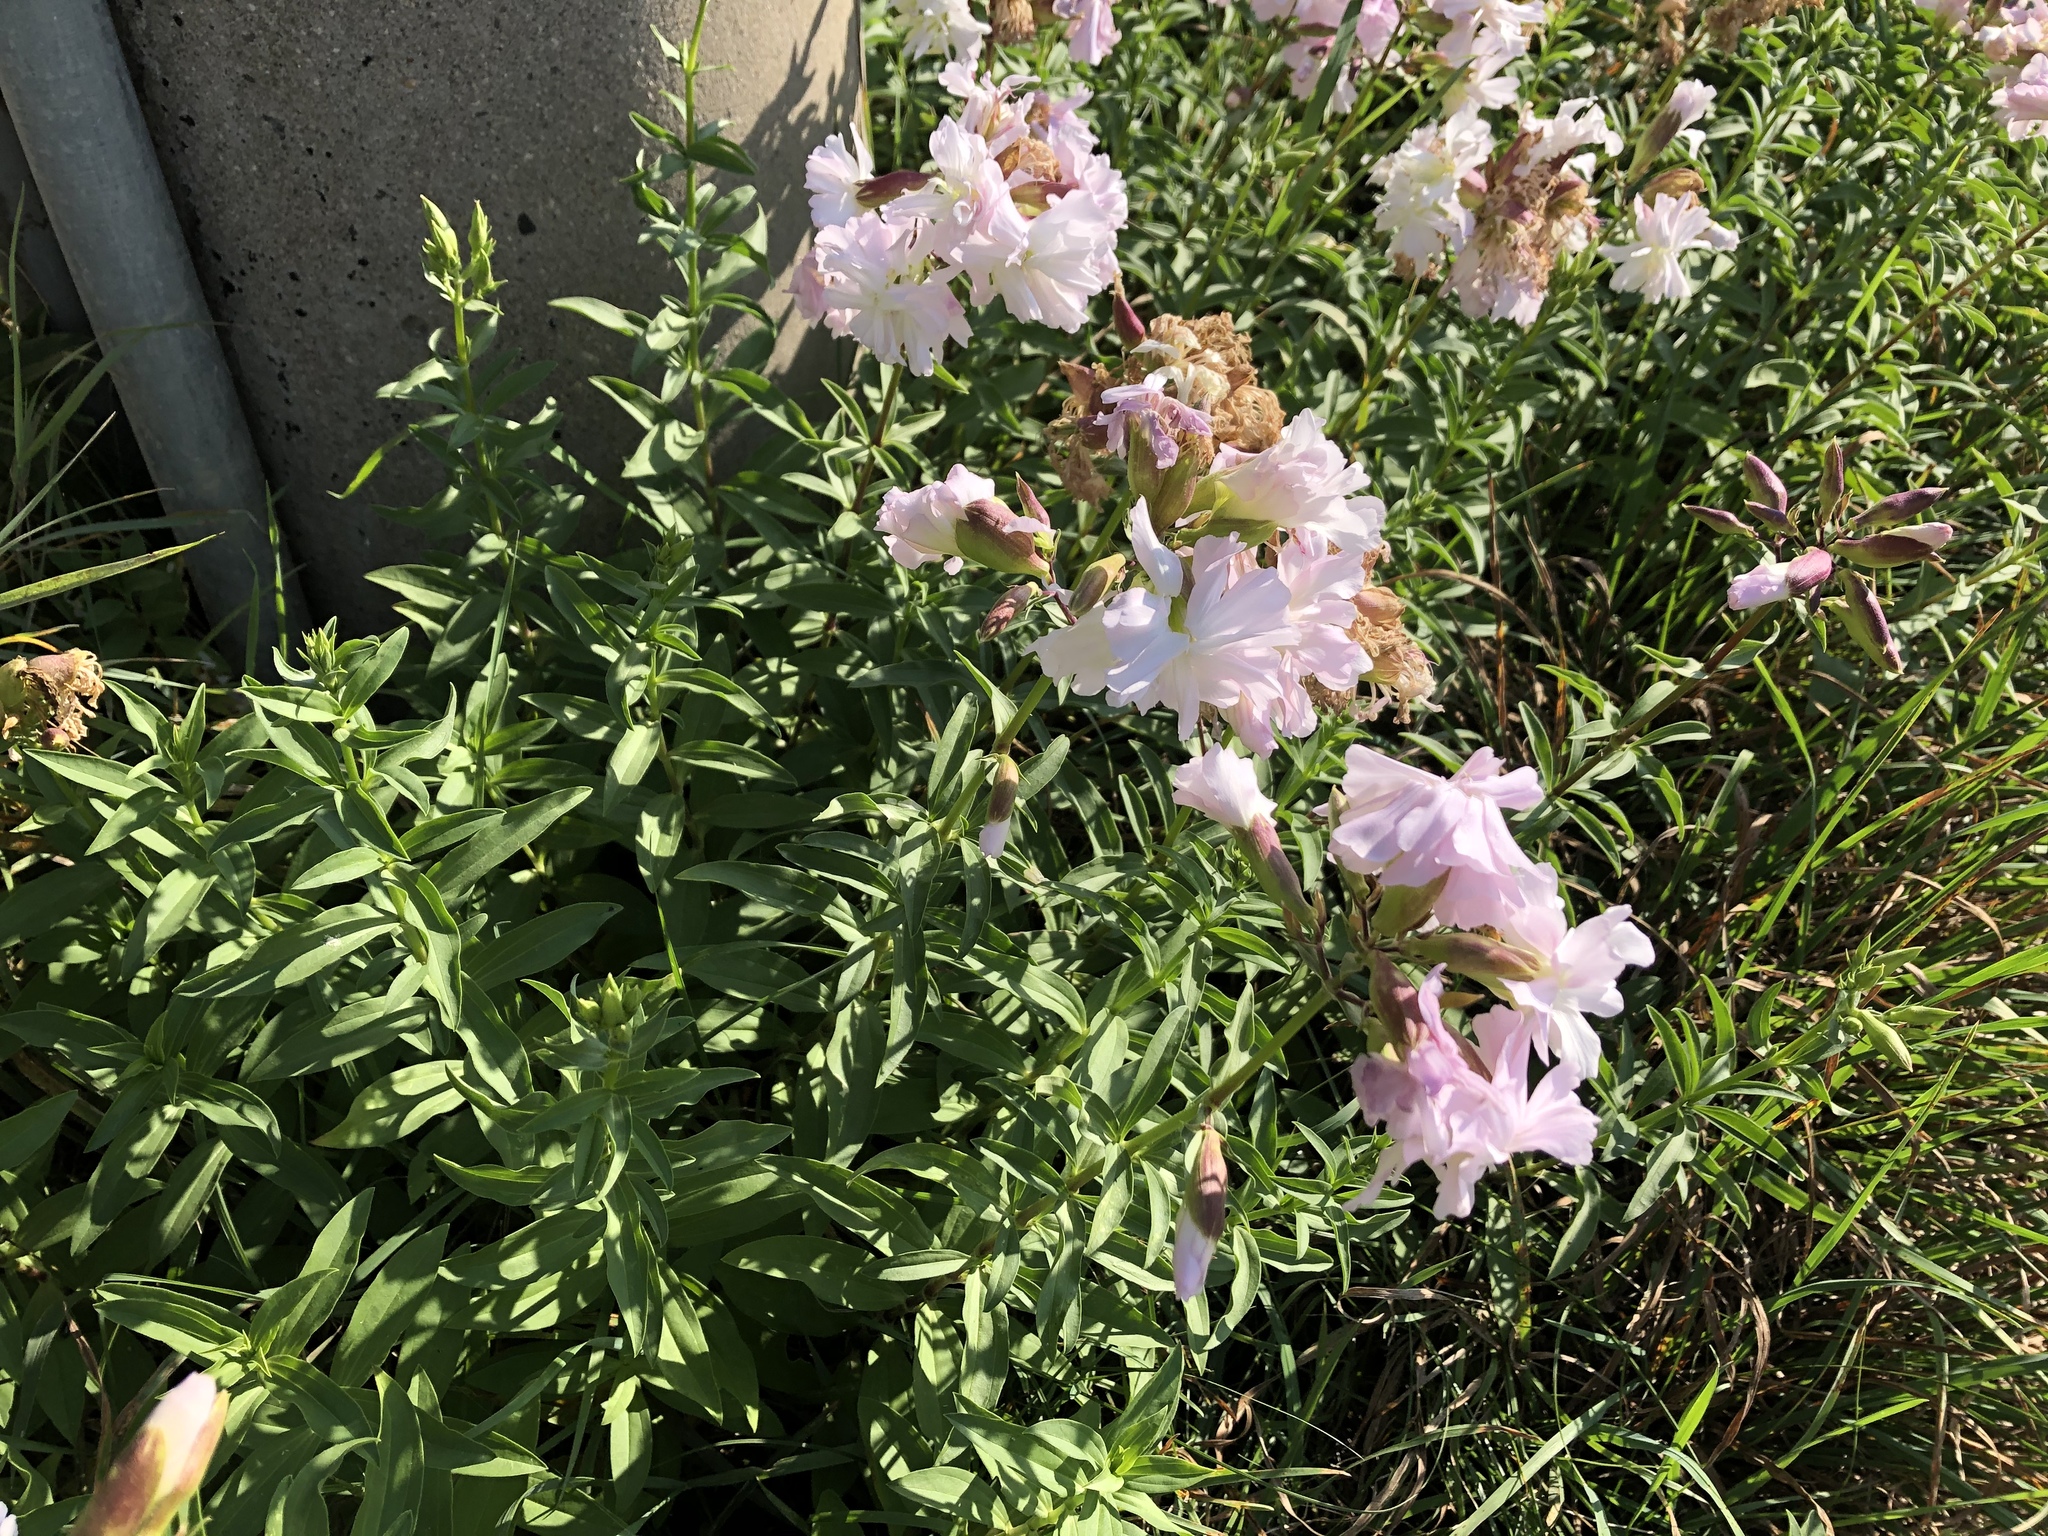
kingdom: Plantae
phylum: Tracheophyta
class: Magnoliopsida
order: Caryophyllales
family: Caryophyllaceae
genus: Saponaria
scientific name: Saponaria officinalis
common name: Soapwort
